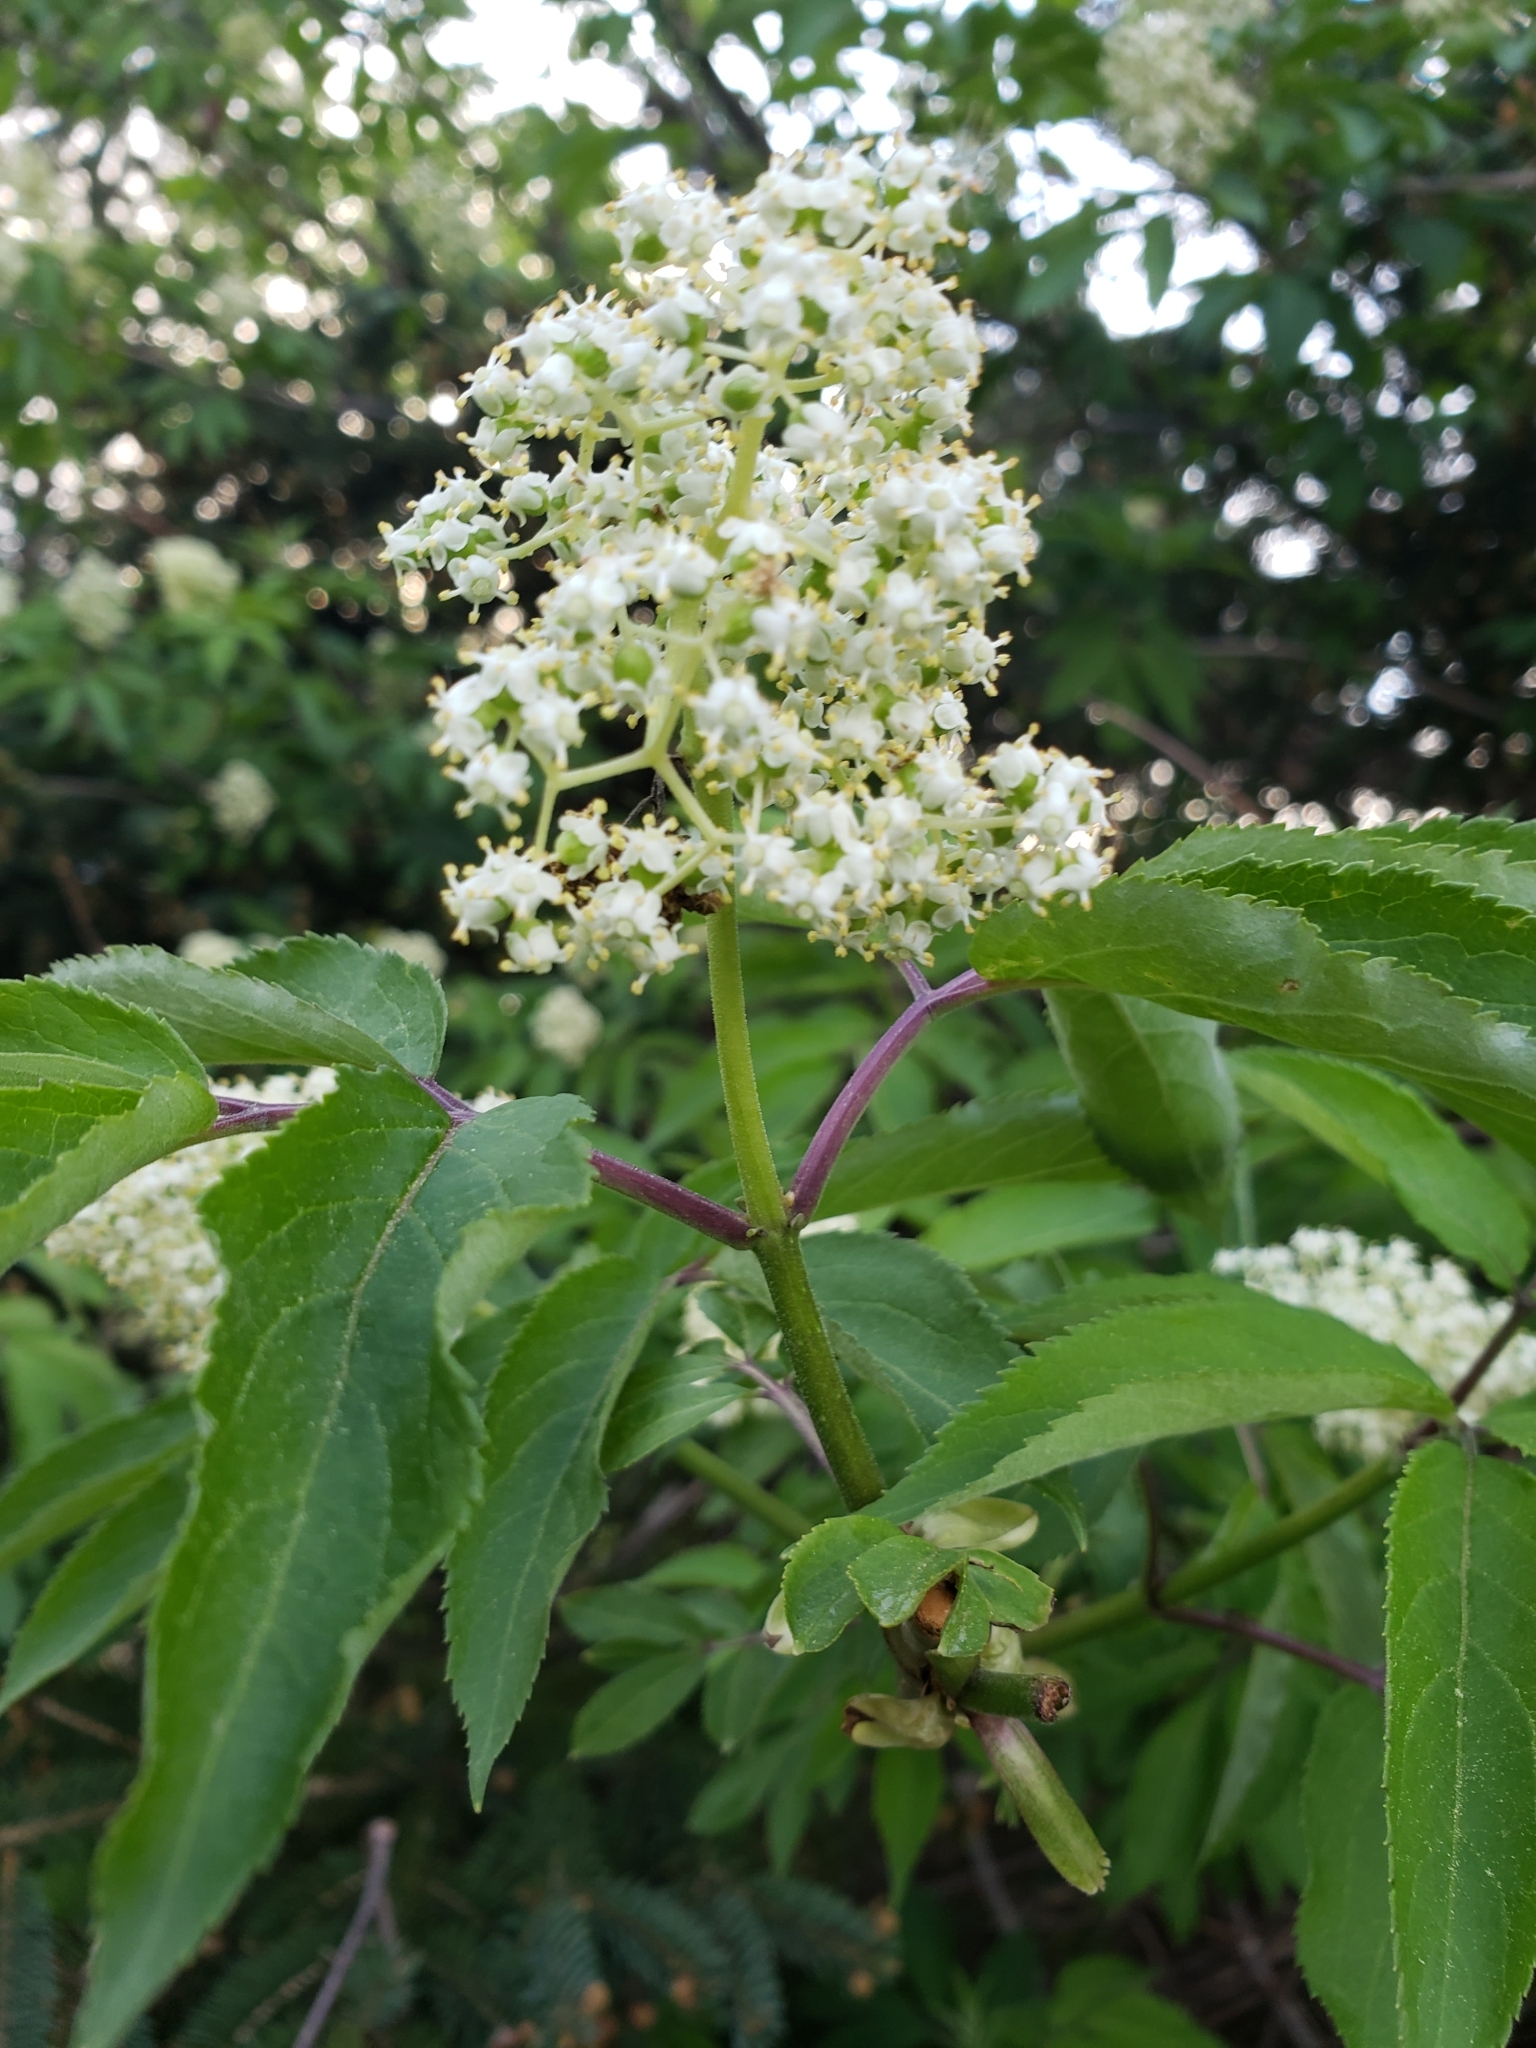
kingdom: Plantae
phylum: Tracheophyta
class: Magnoliopsida
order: Dipsacales
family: Viburnaceae
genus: Sambucus
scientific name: Sambucus racemosa
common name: Red-berried elder
